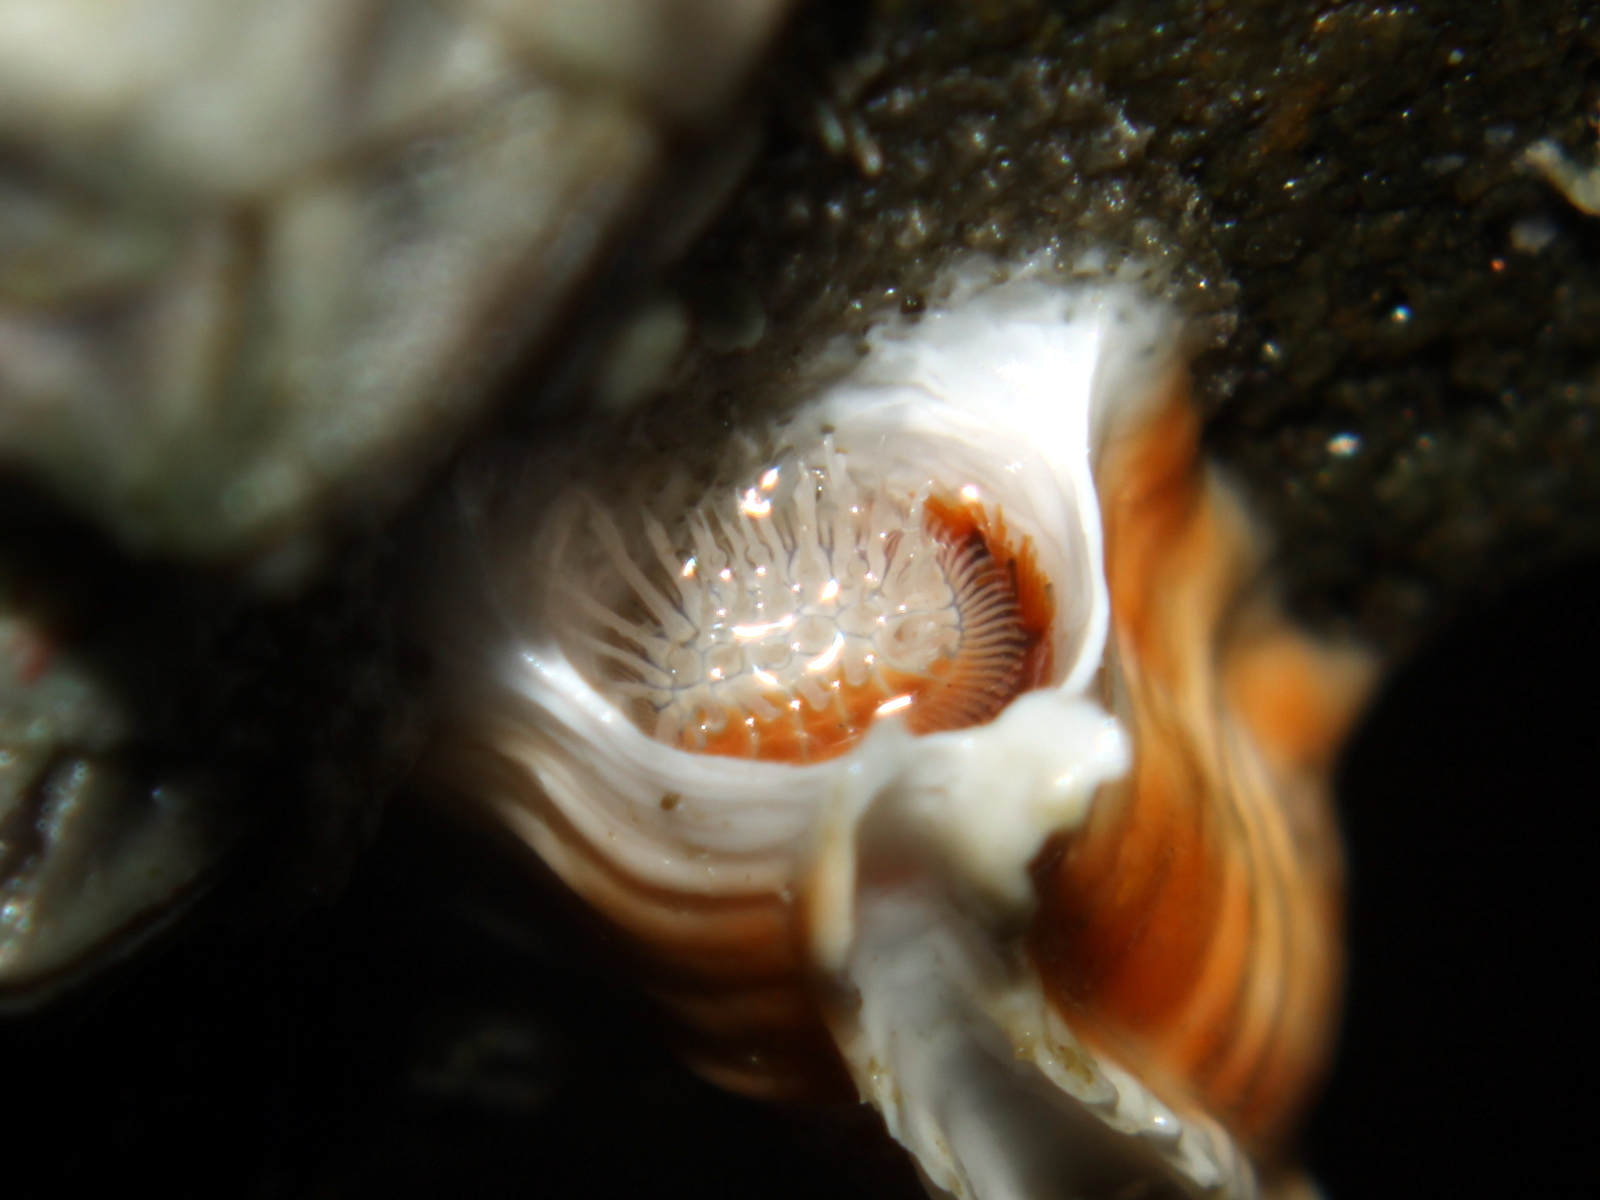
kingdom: Animalia
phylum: Annelida
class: Polychaeta
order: Sabellida
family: Serpulidae
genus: Galeolaria
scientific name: Galeolaria hystrix
